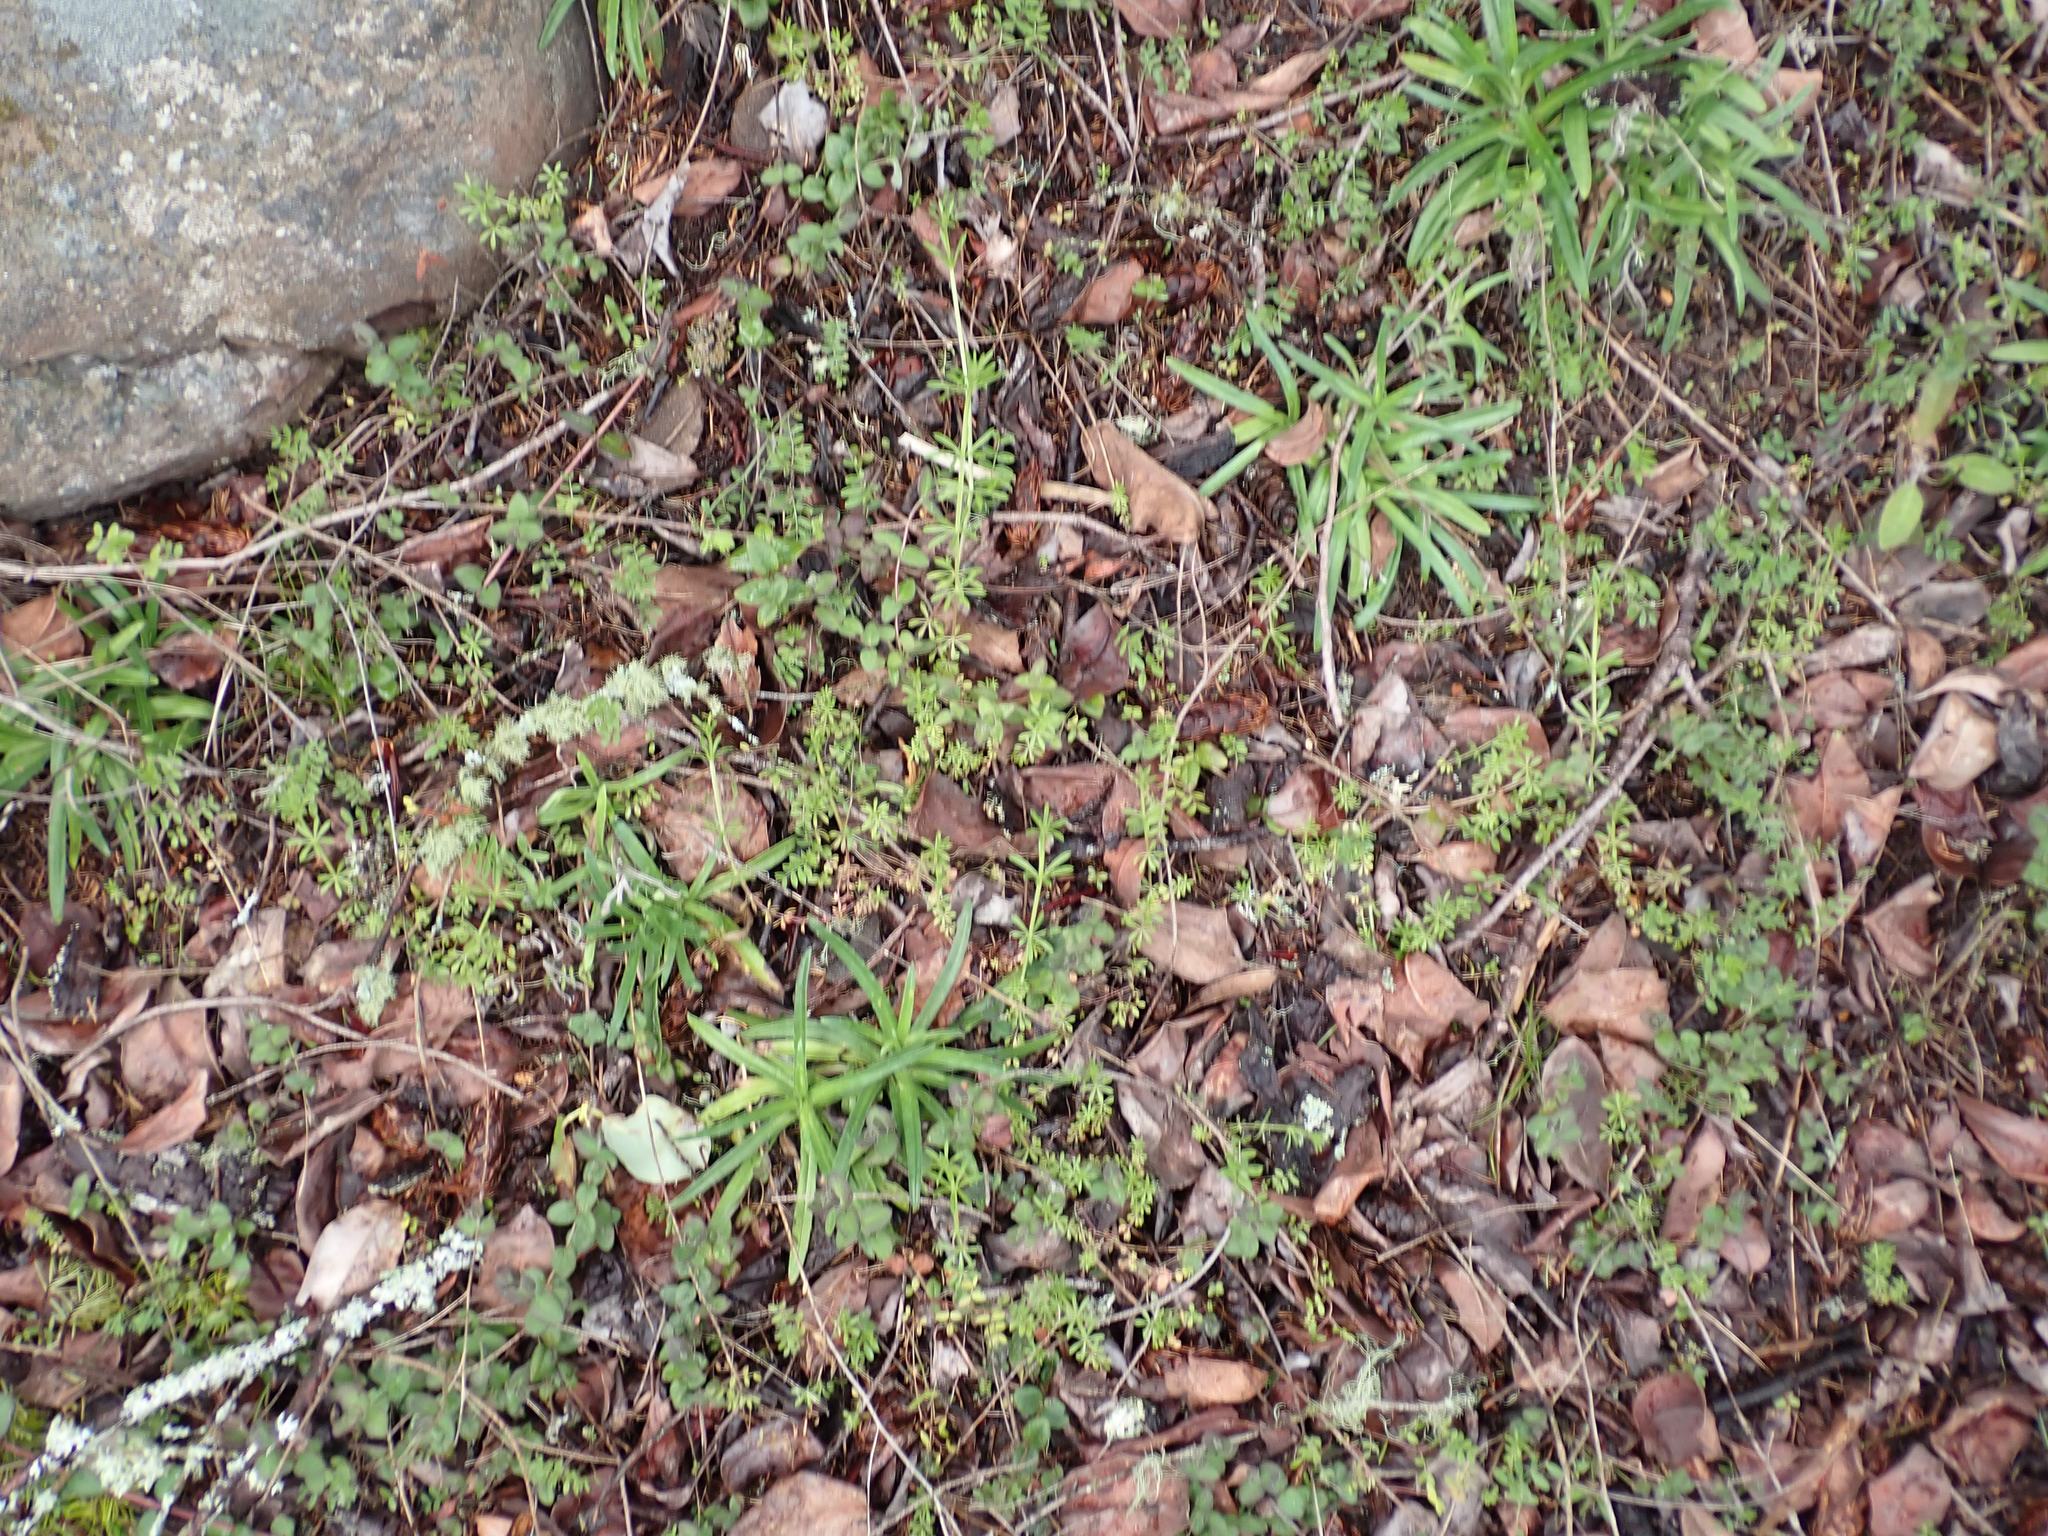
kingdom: Plantae
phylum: Tracheophyta
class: Magnoliopsida
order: Gentianales
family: Rubiaceae
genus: Galium
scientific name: Galium aparine
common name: Cleavers
